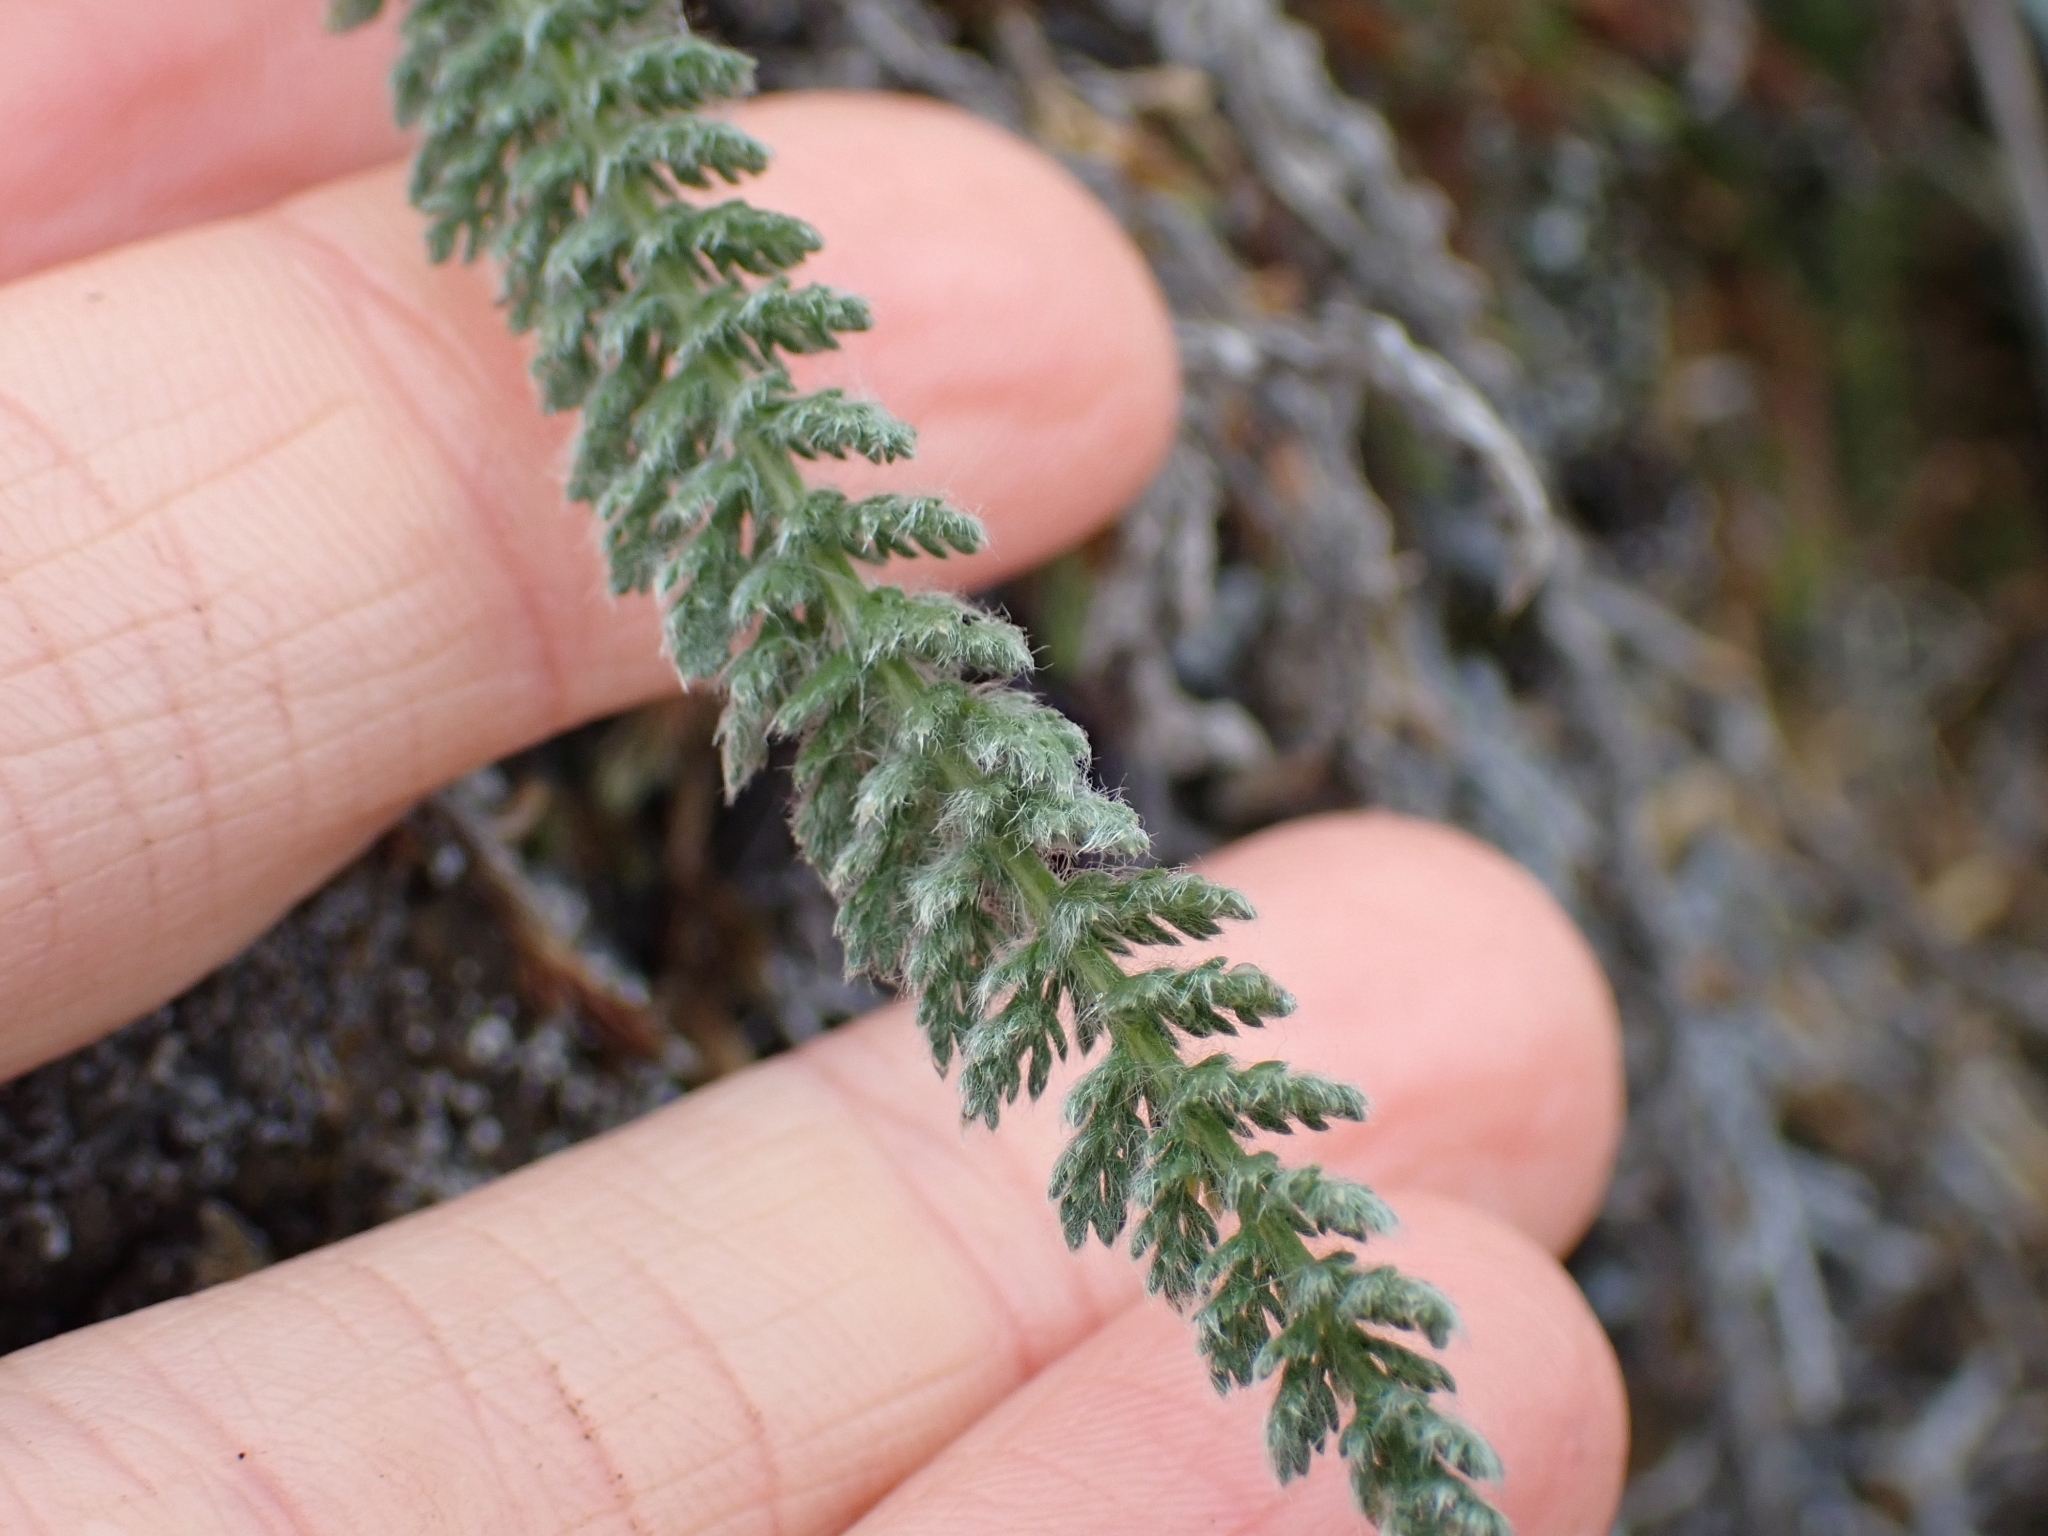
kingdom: Plantae
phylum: Tracheophyta
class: Magnoliopsida
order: Asterales
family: Asteraceae
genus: Achillea
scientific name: Achillea millefolium
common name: Yarrow
